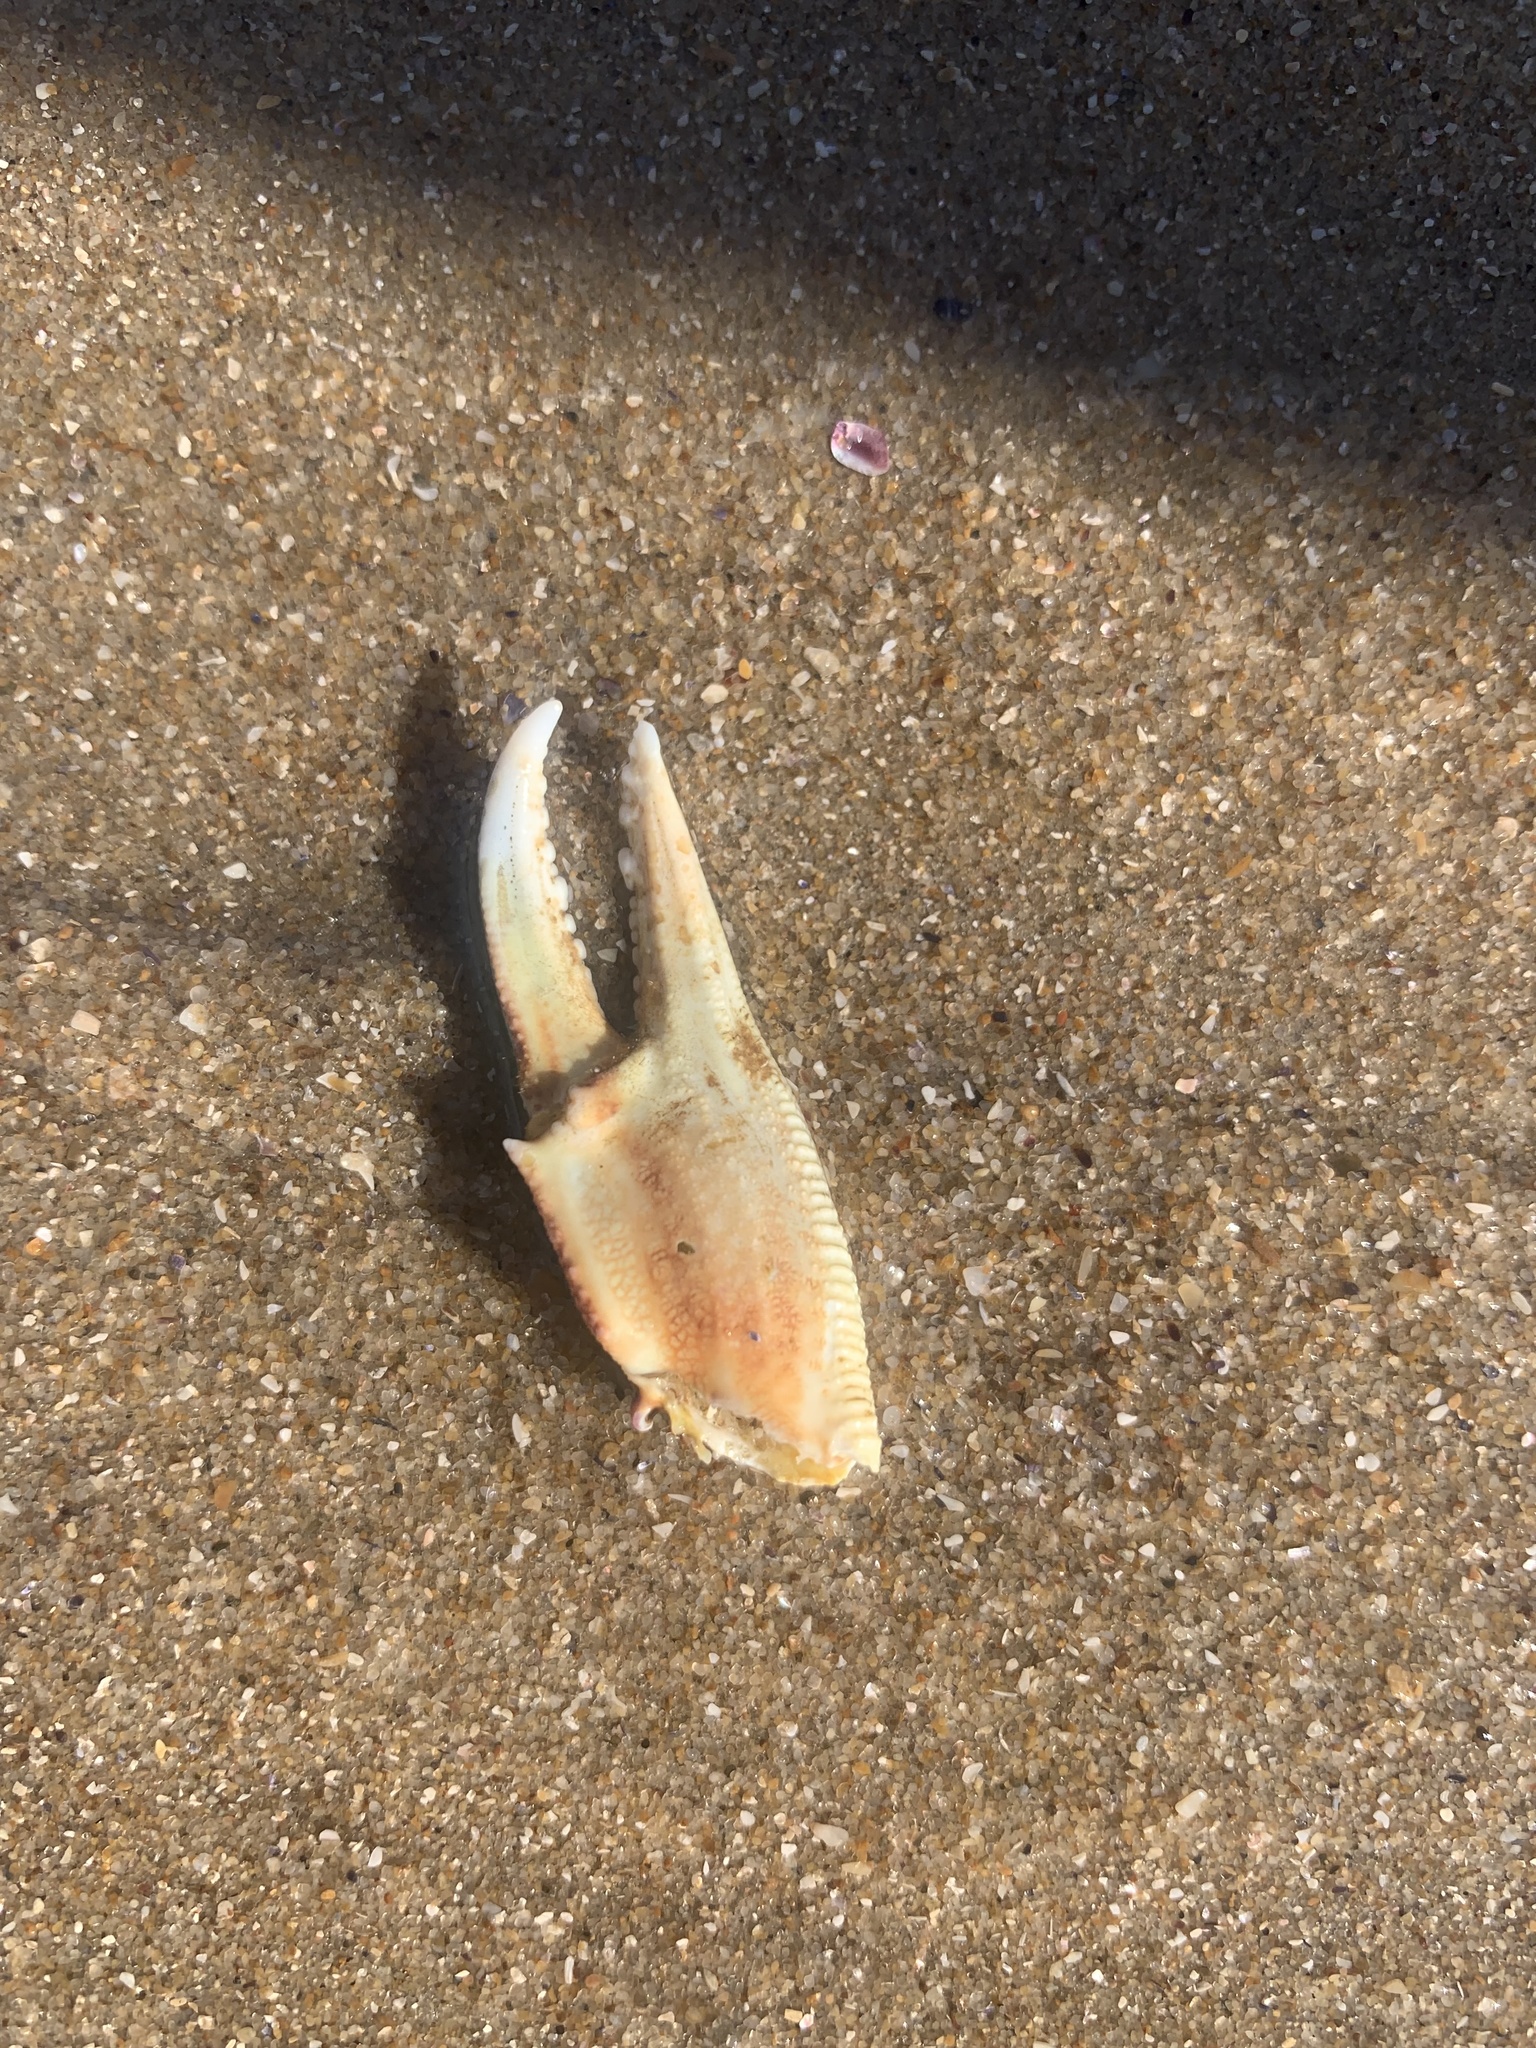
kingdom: Animalia
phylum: Arthropoda
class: Malacostraca
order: Decapoda
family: Portunidae
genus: Callinectes
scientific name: Callinectes sapidus
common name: Blue crab
